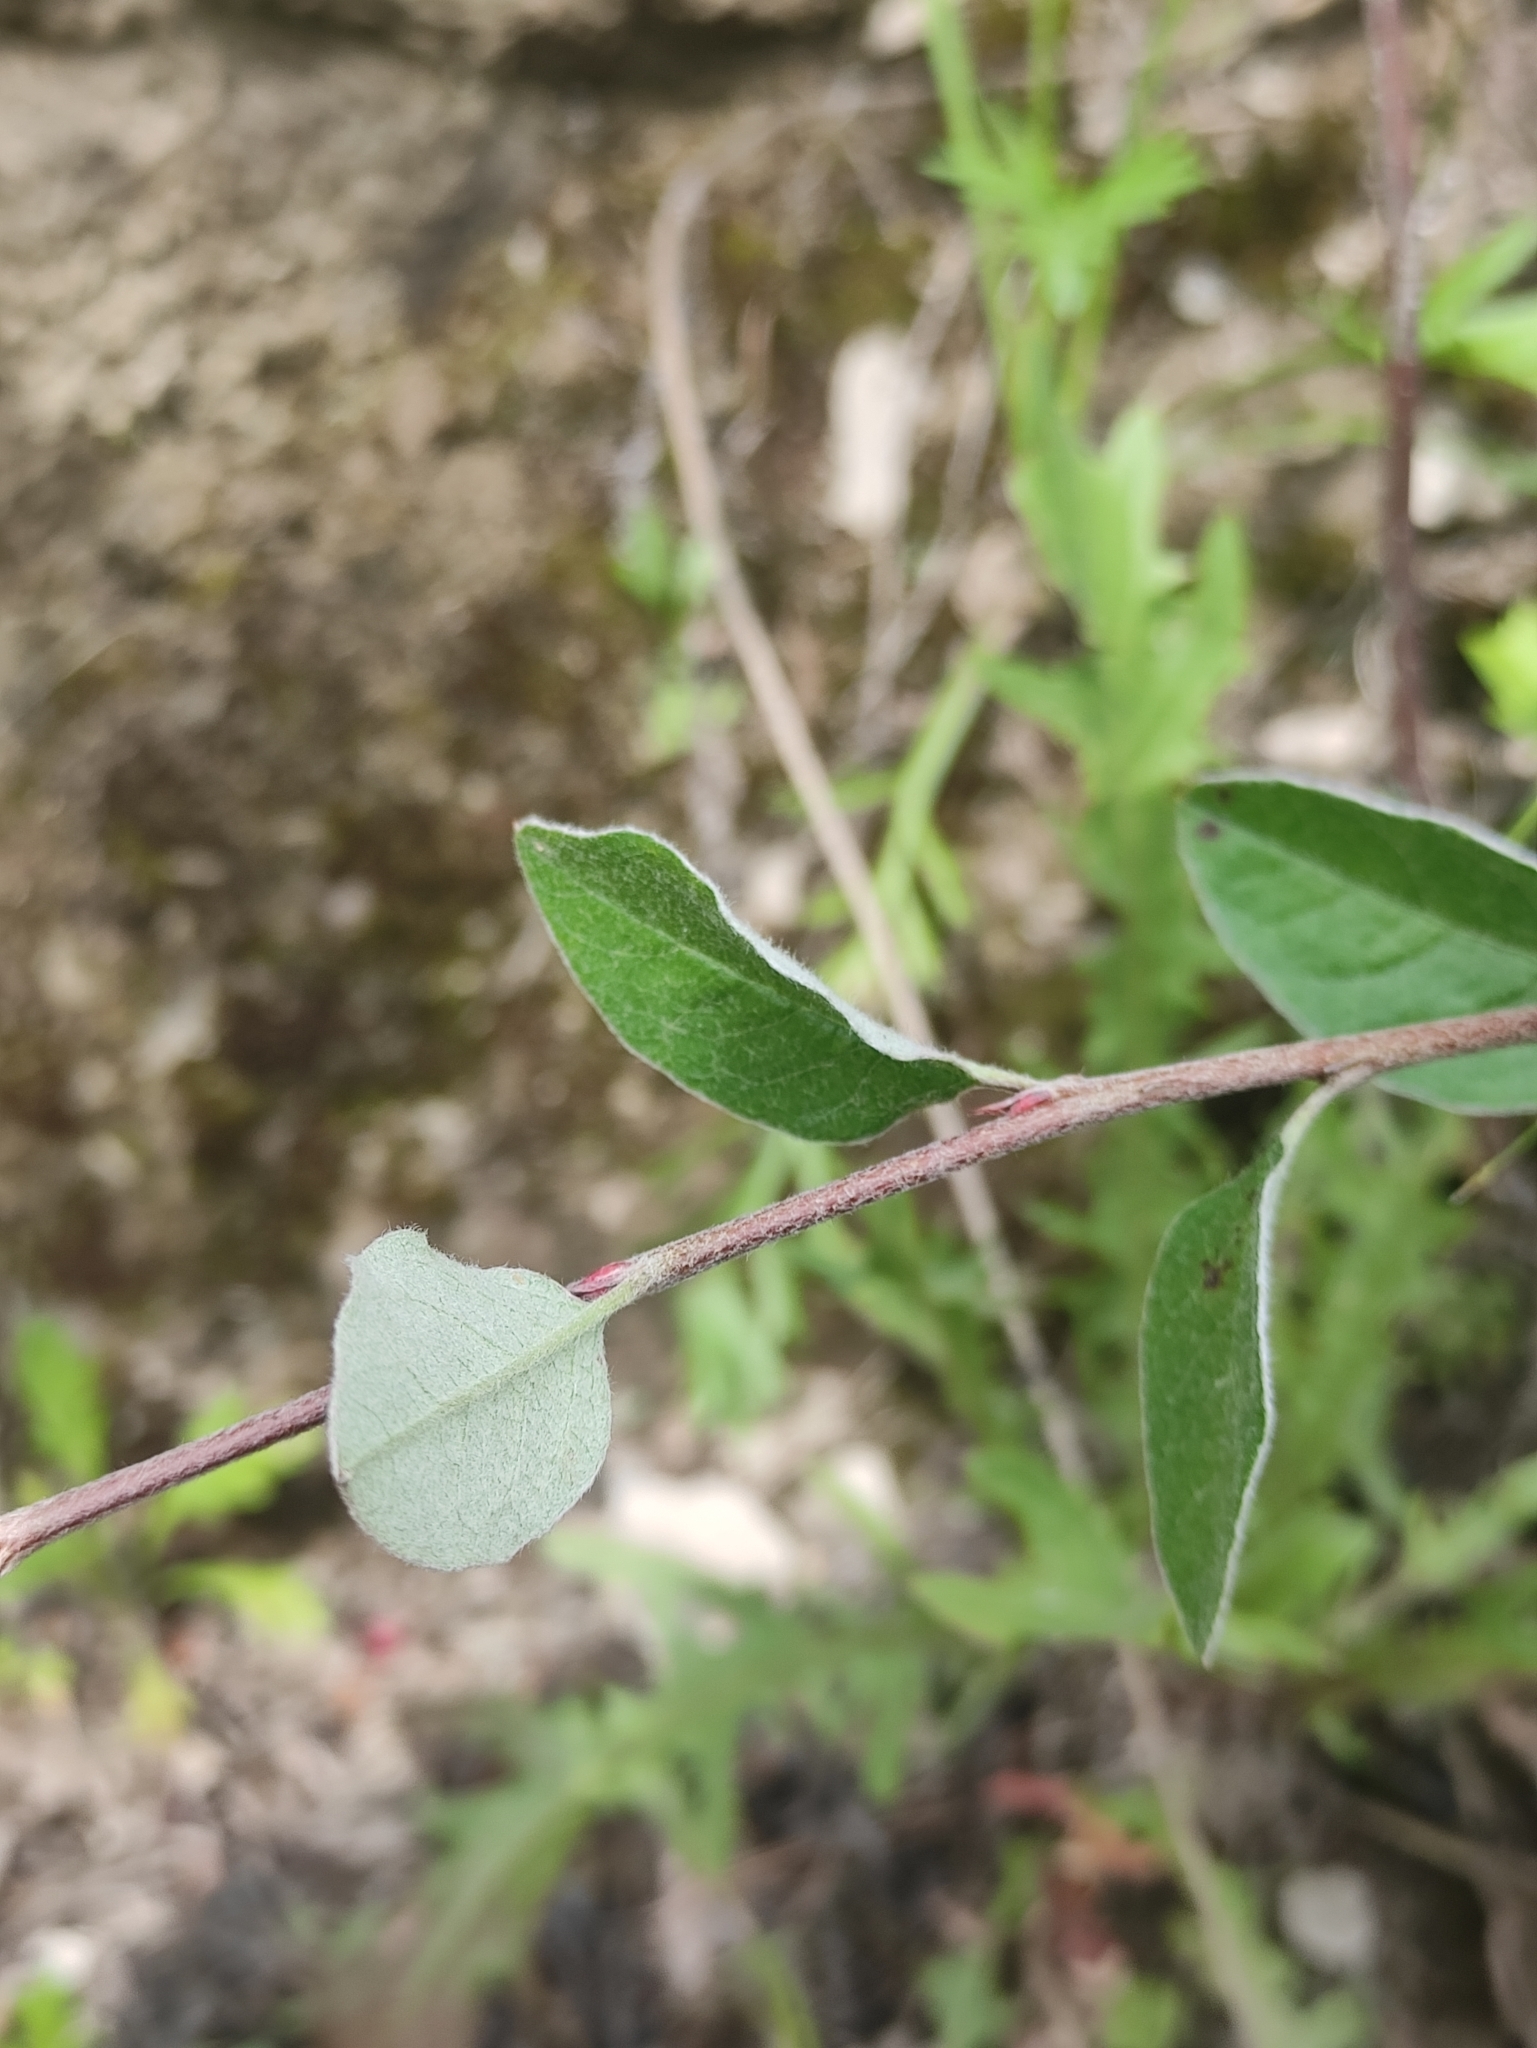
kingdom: Plantae
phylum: Tracheophyta
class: Magnoliopsida
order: Rosales
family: Rosaceae
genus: Cotoneaster
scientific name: Cotoneaster melanocarpus
